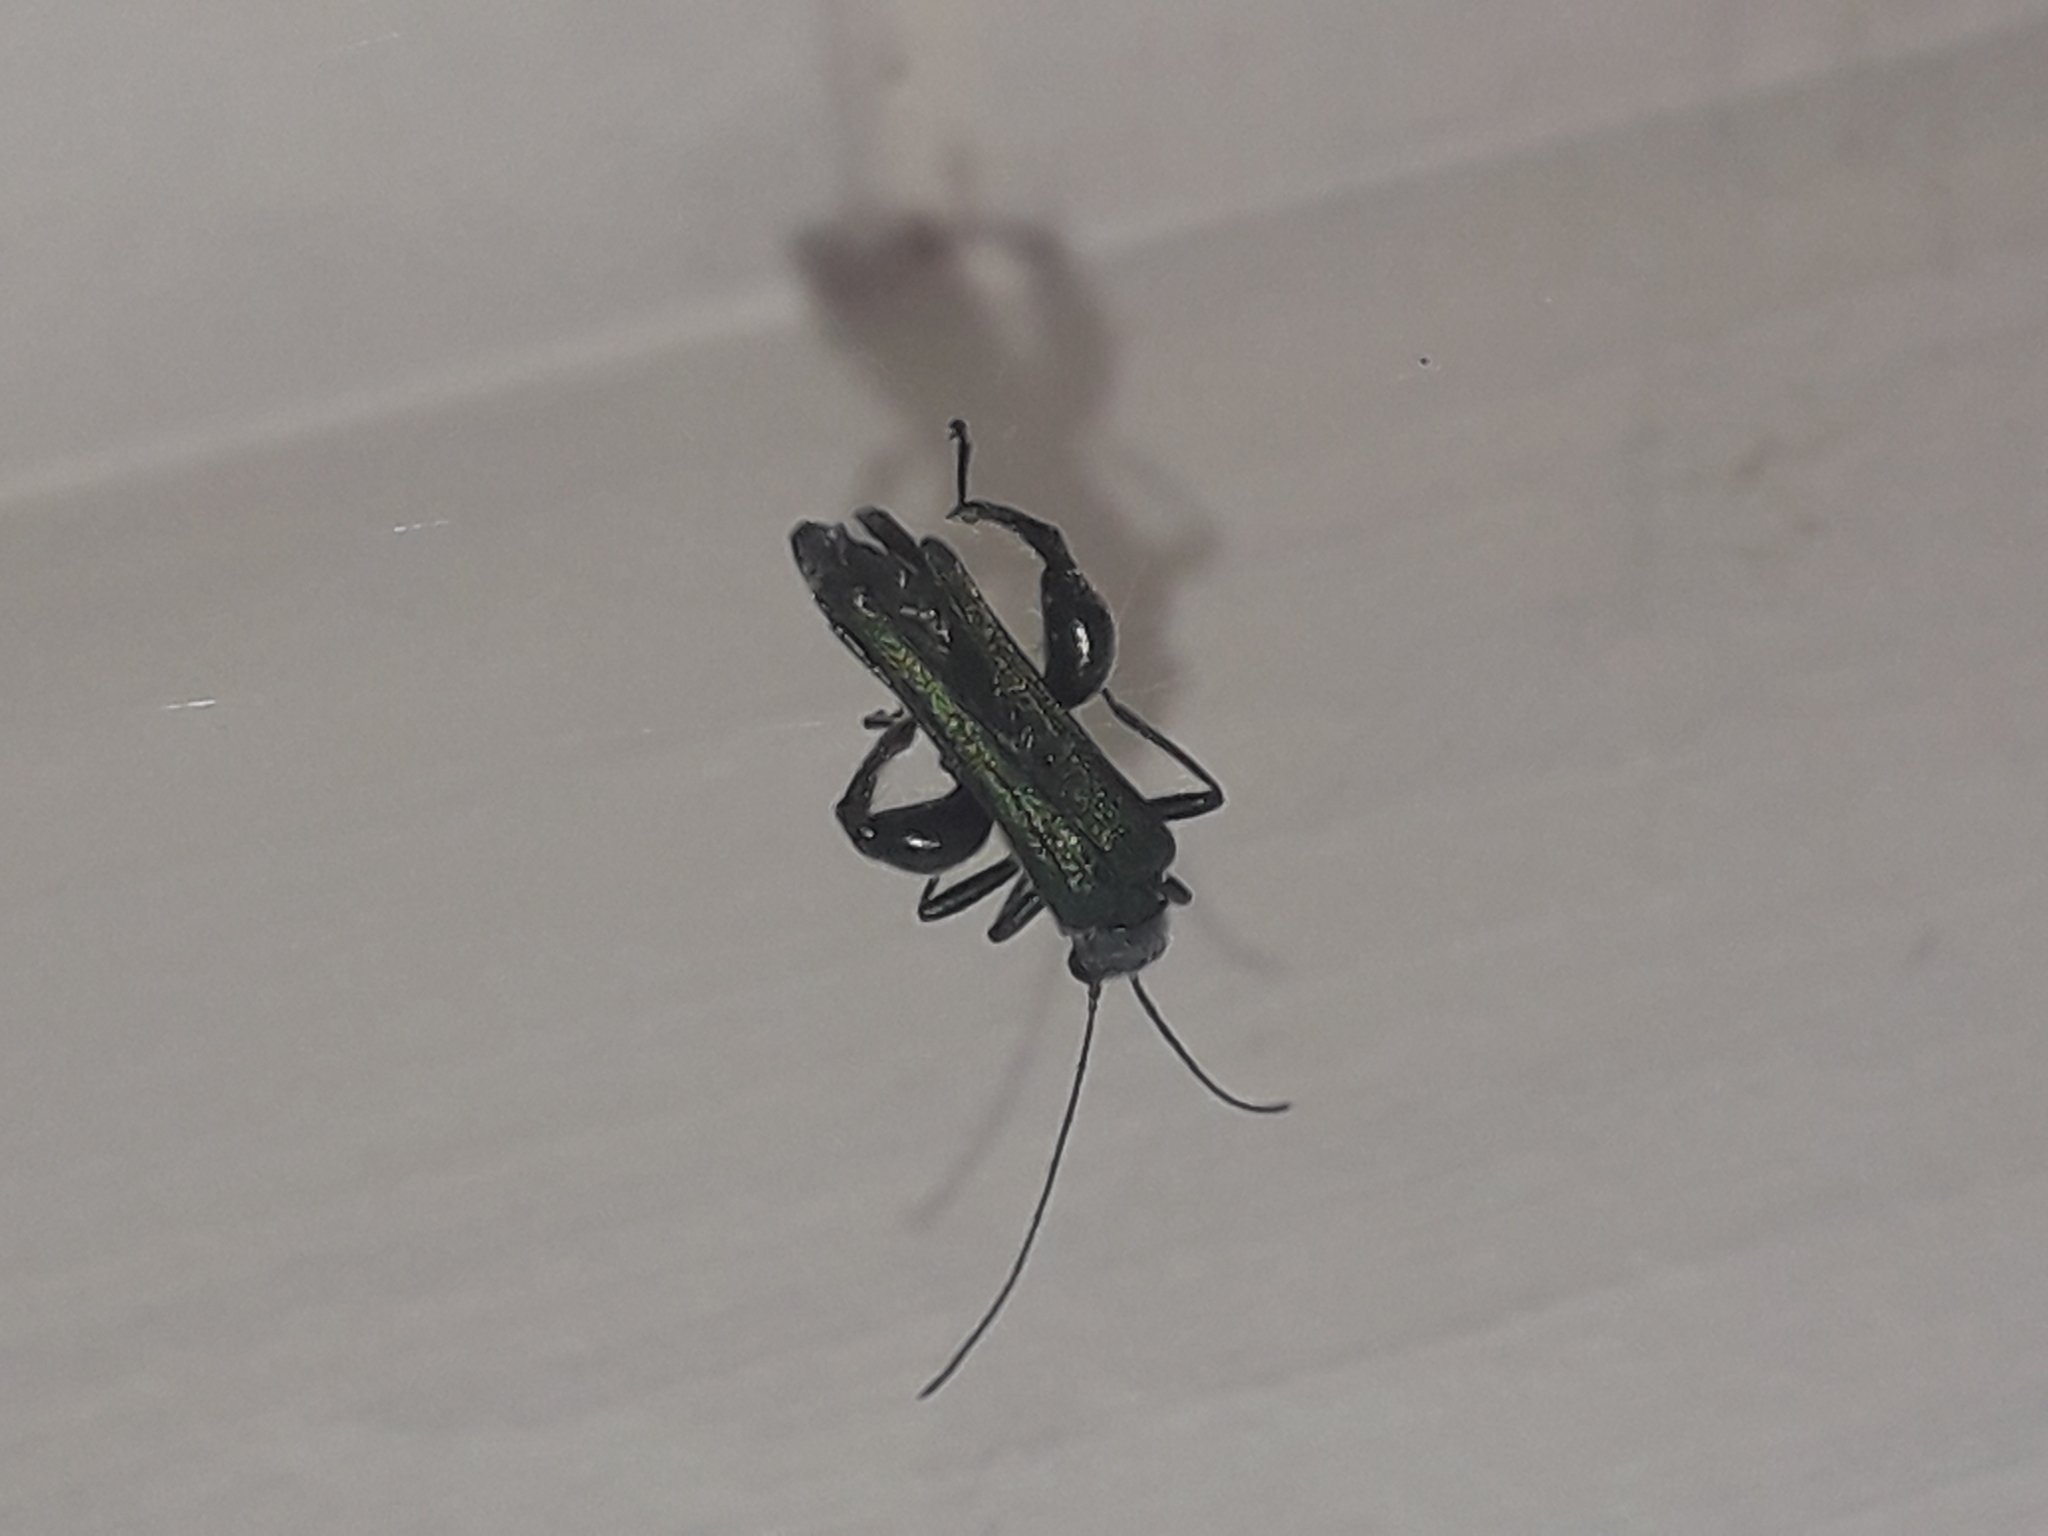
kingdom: Animalia
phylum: Arthropoda
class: Insecta
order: Coleoptera
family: Oedemeridae
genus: Oedemera
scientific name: Oedemera nobilis
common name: Swollen-thighed beetle
